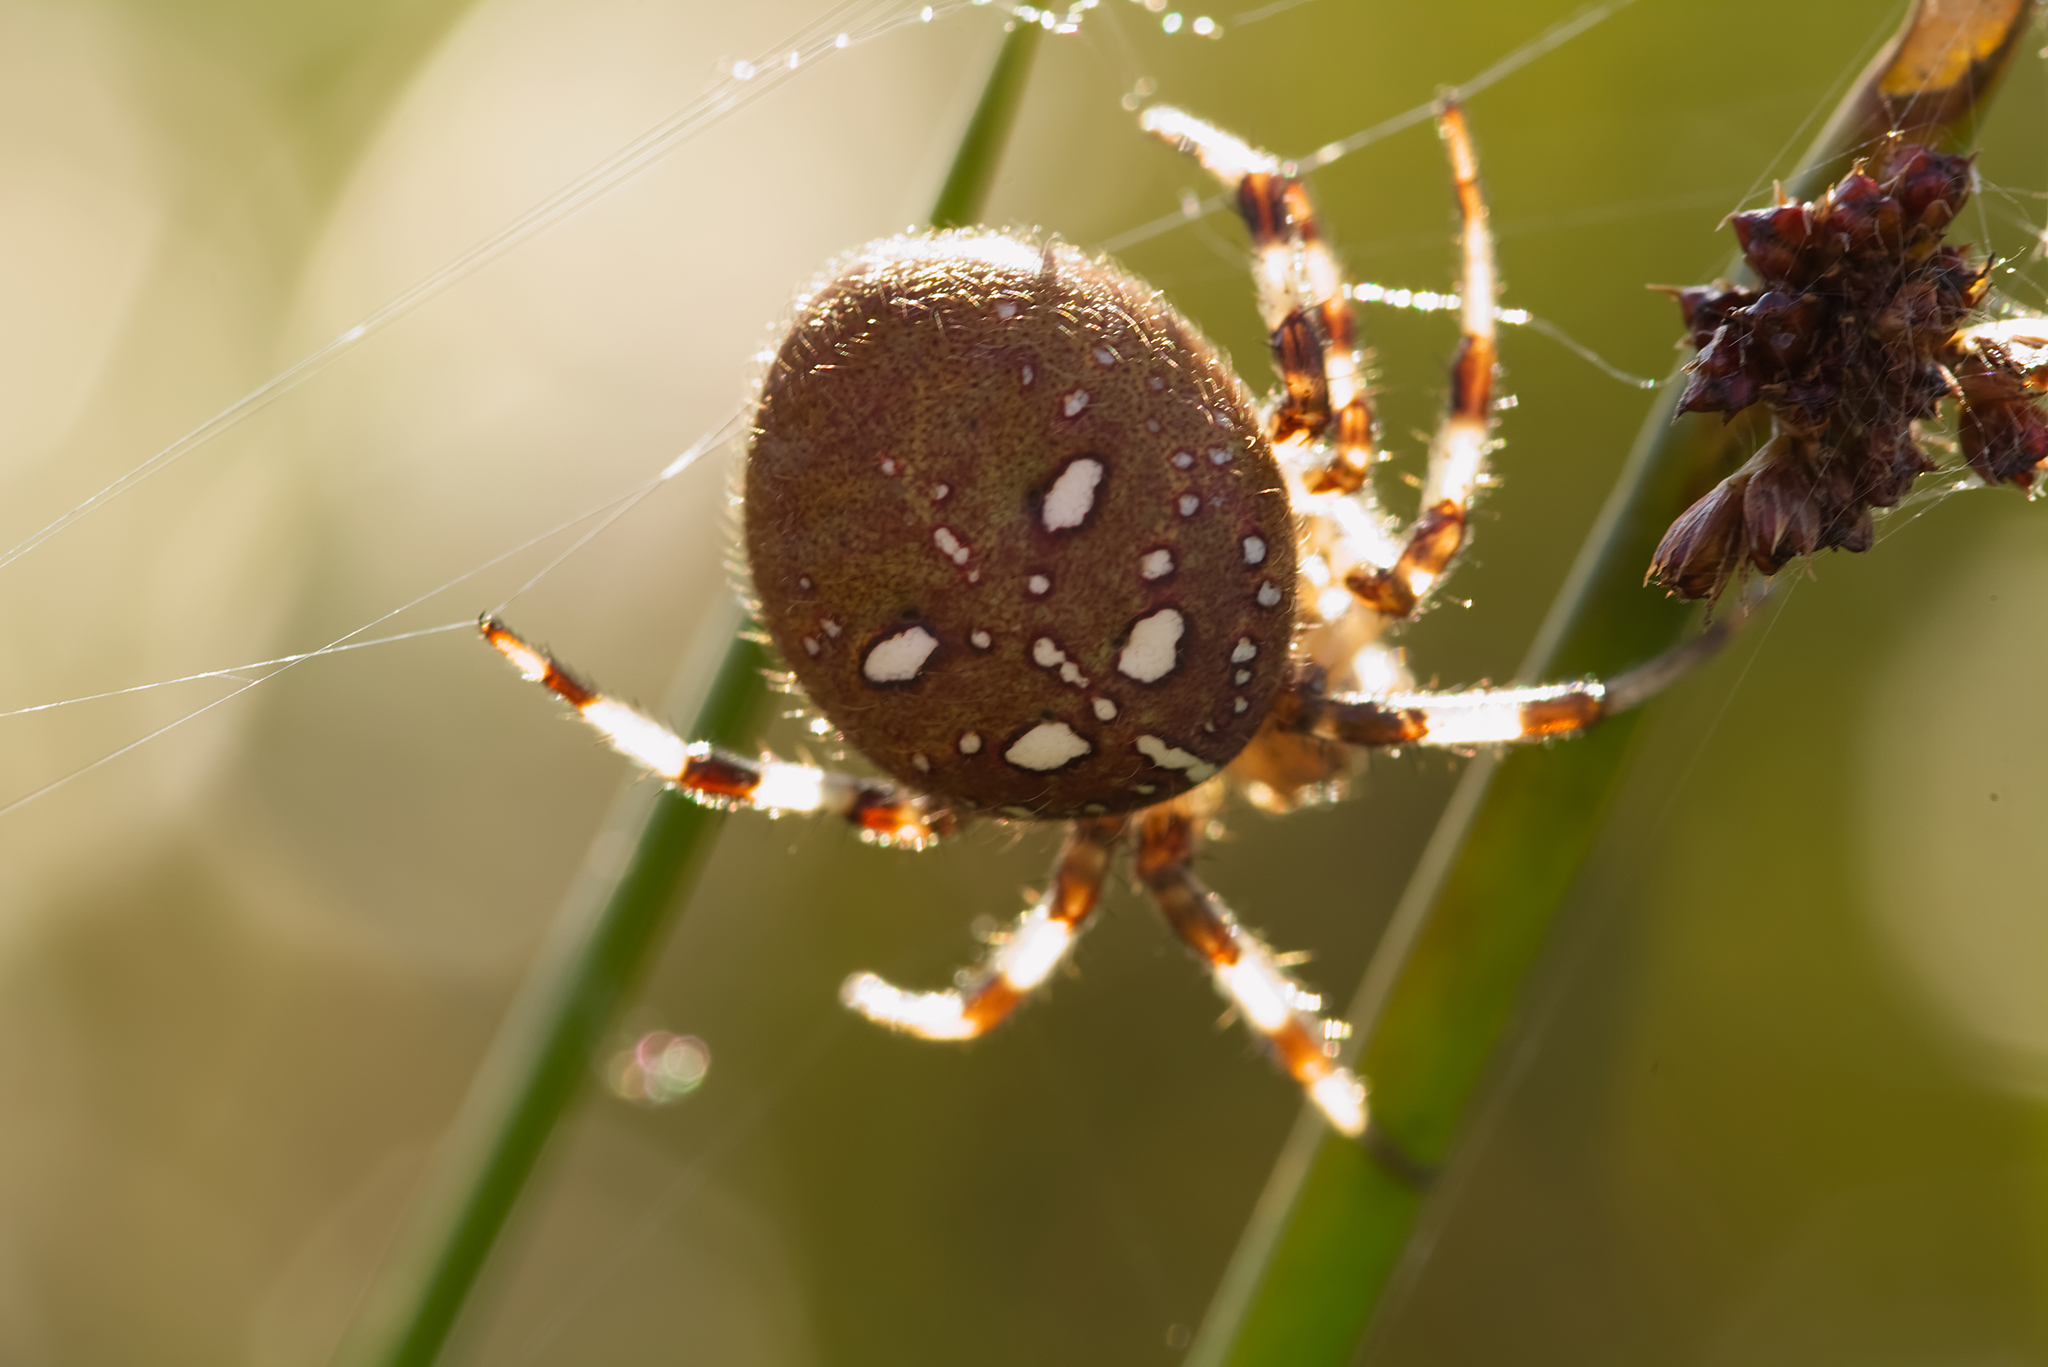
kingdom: Animalia
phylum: Arthropoda
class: Arachnida
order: Araneae
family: Araneidae
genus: Araneus
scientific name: Araneus quadratus
